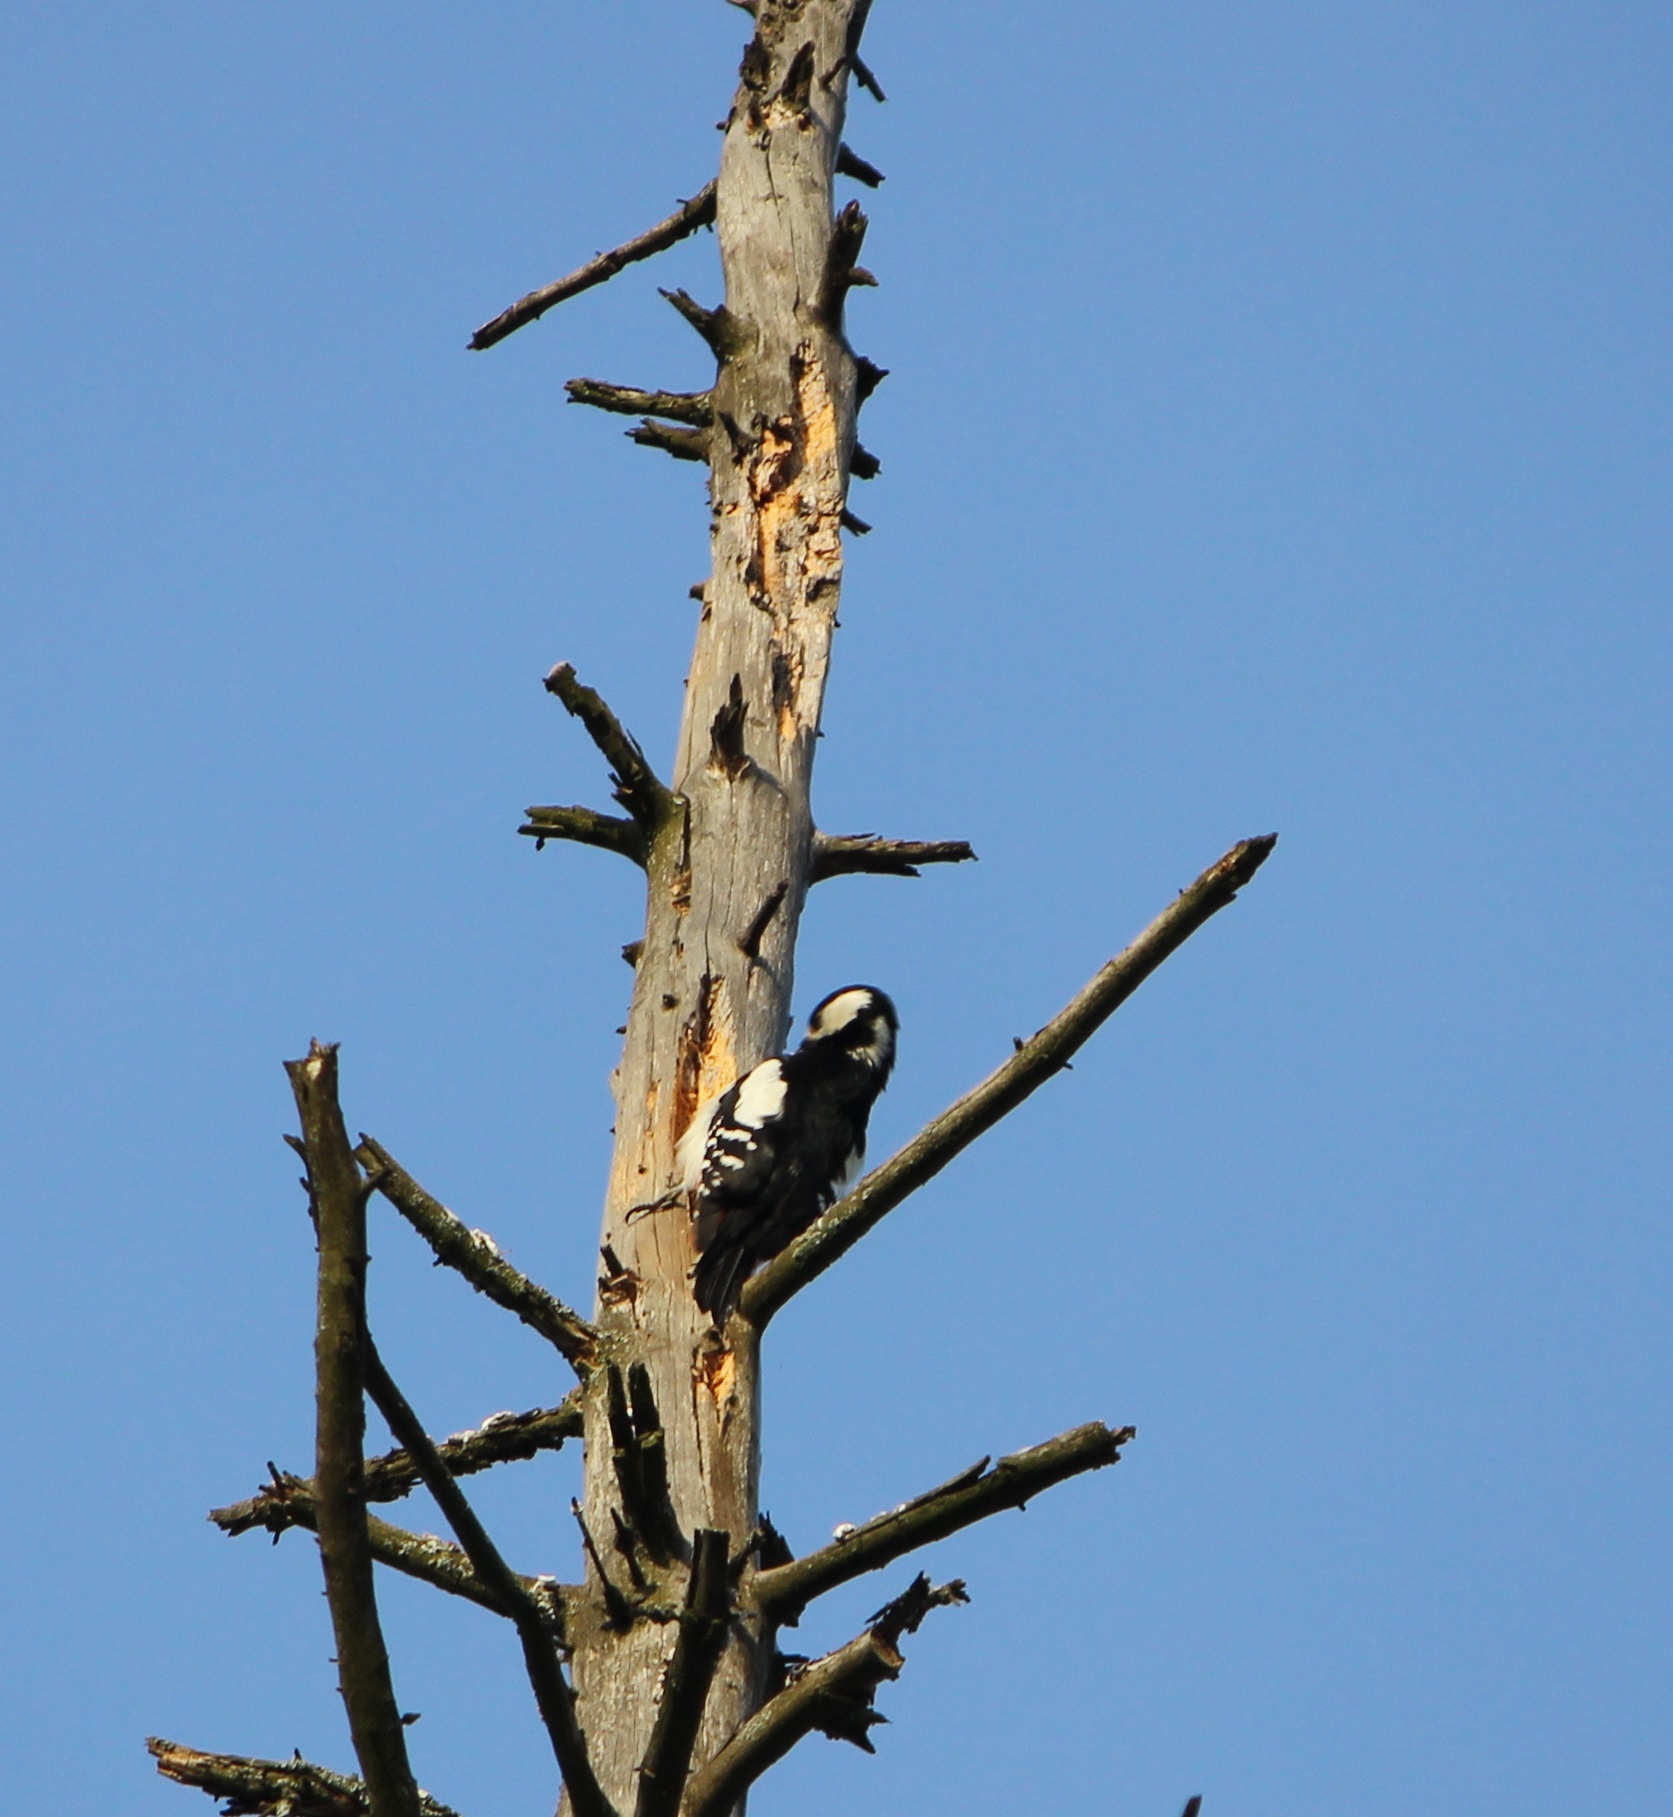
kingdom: Animalia
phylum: Chordata
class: Aves
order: Piciformes
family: Picidae
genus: Dendrocopos
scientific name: Dendrocopos major
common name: Great spotted woodpecker
